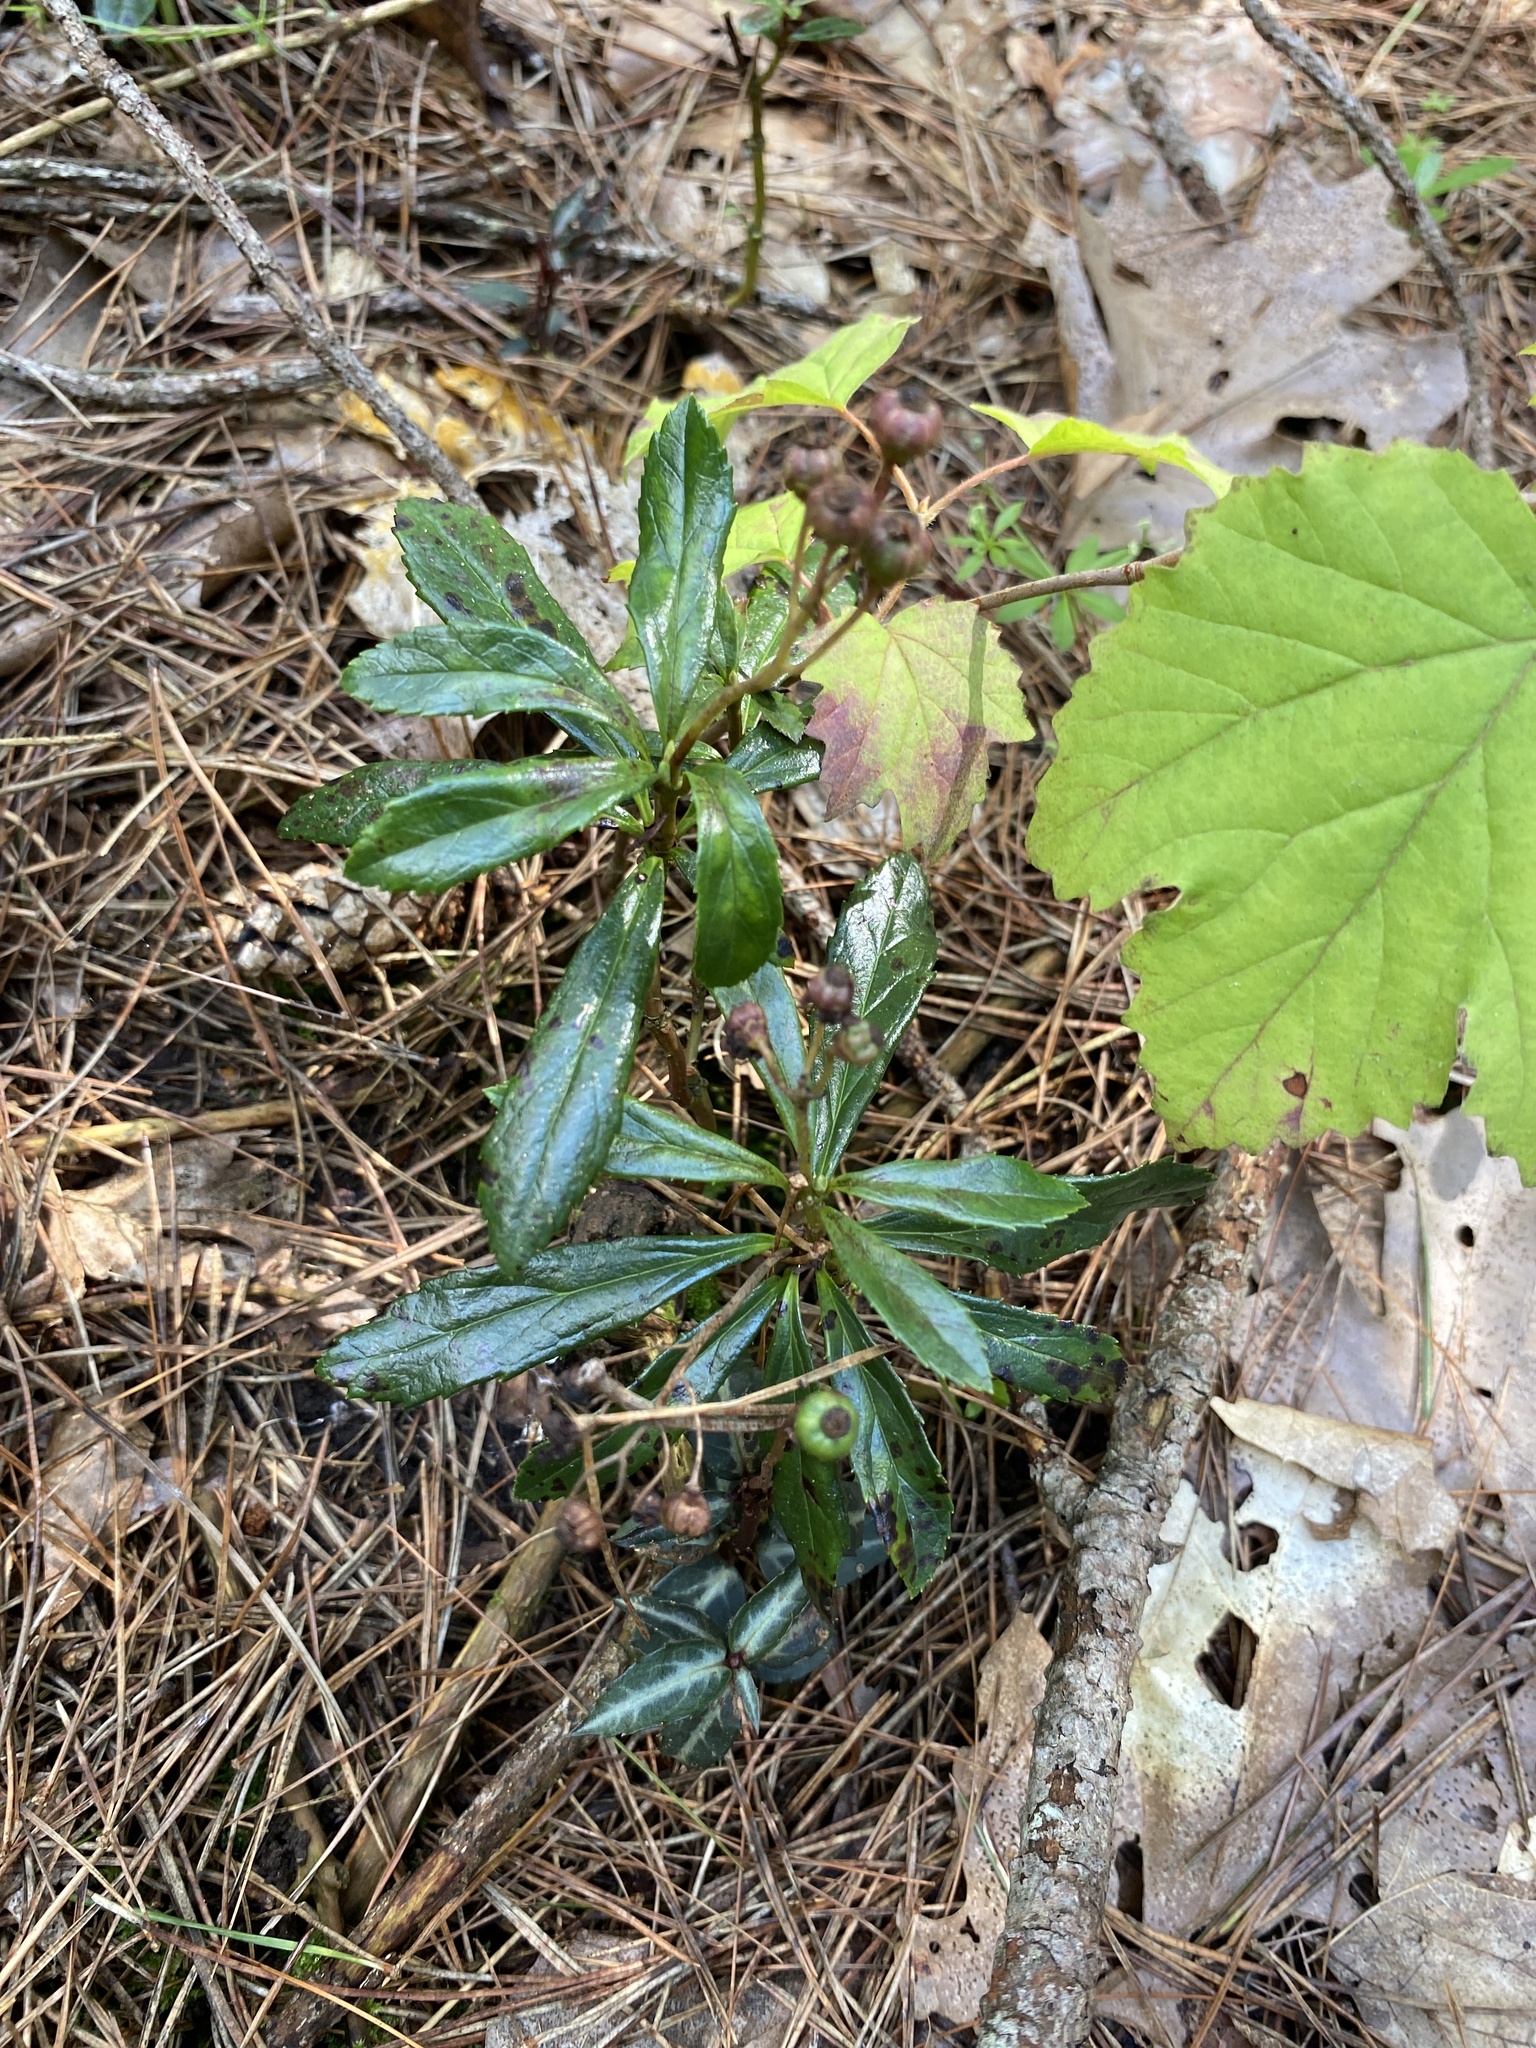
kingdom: Plantae
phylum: Tracheophyta
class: Magnoliopsida
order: Ericales
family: Ericaceae
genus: Chimaphila
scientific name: Chimaphila umbellata
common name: Pipsissewa
